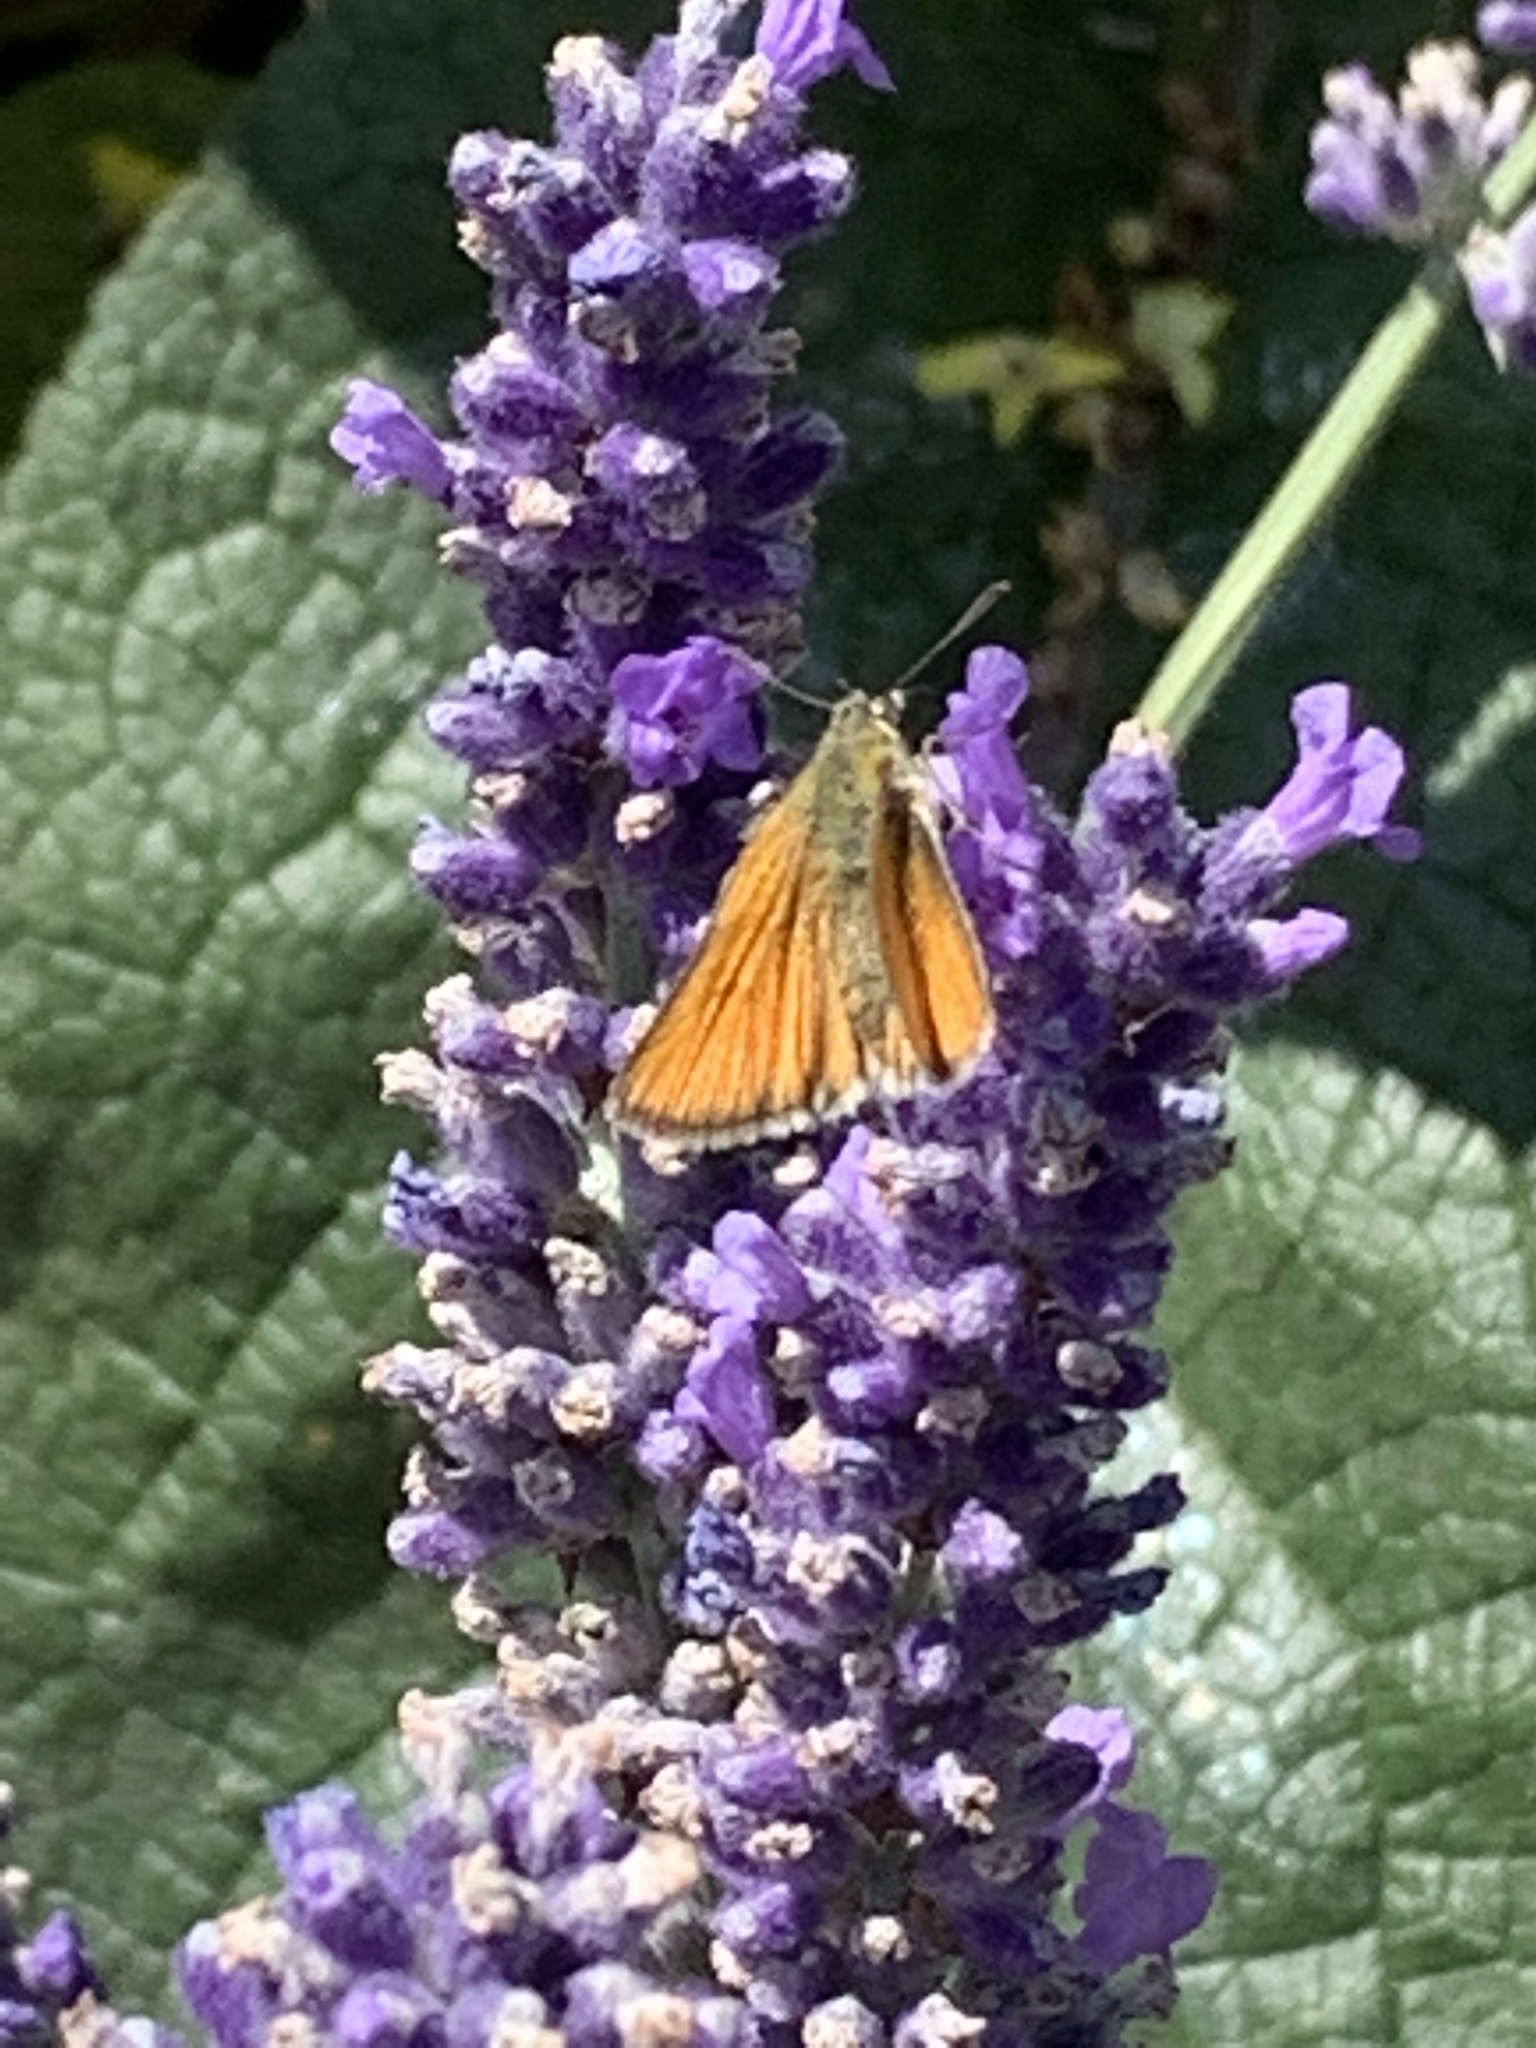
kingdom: Animalia
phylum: Arthropoda
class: Insecta
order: Lepidoptera
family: Hesperiidae
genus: Thymelicus
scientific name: Thymelicus sylvestris
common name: Small skipper
